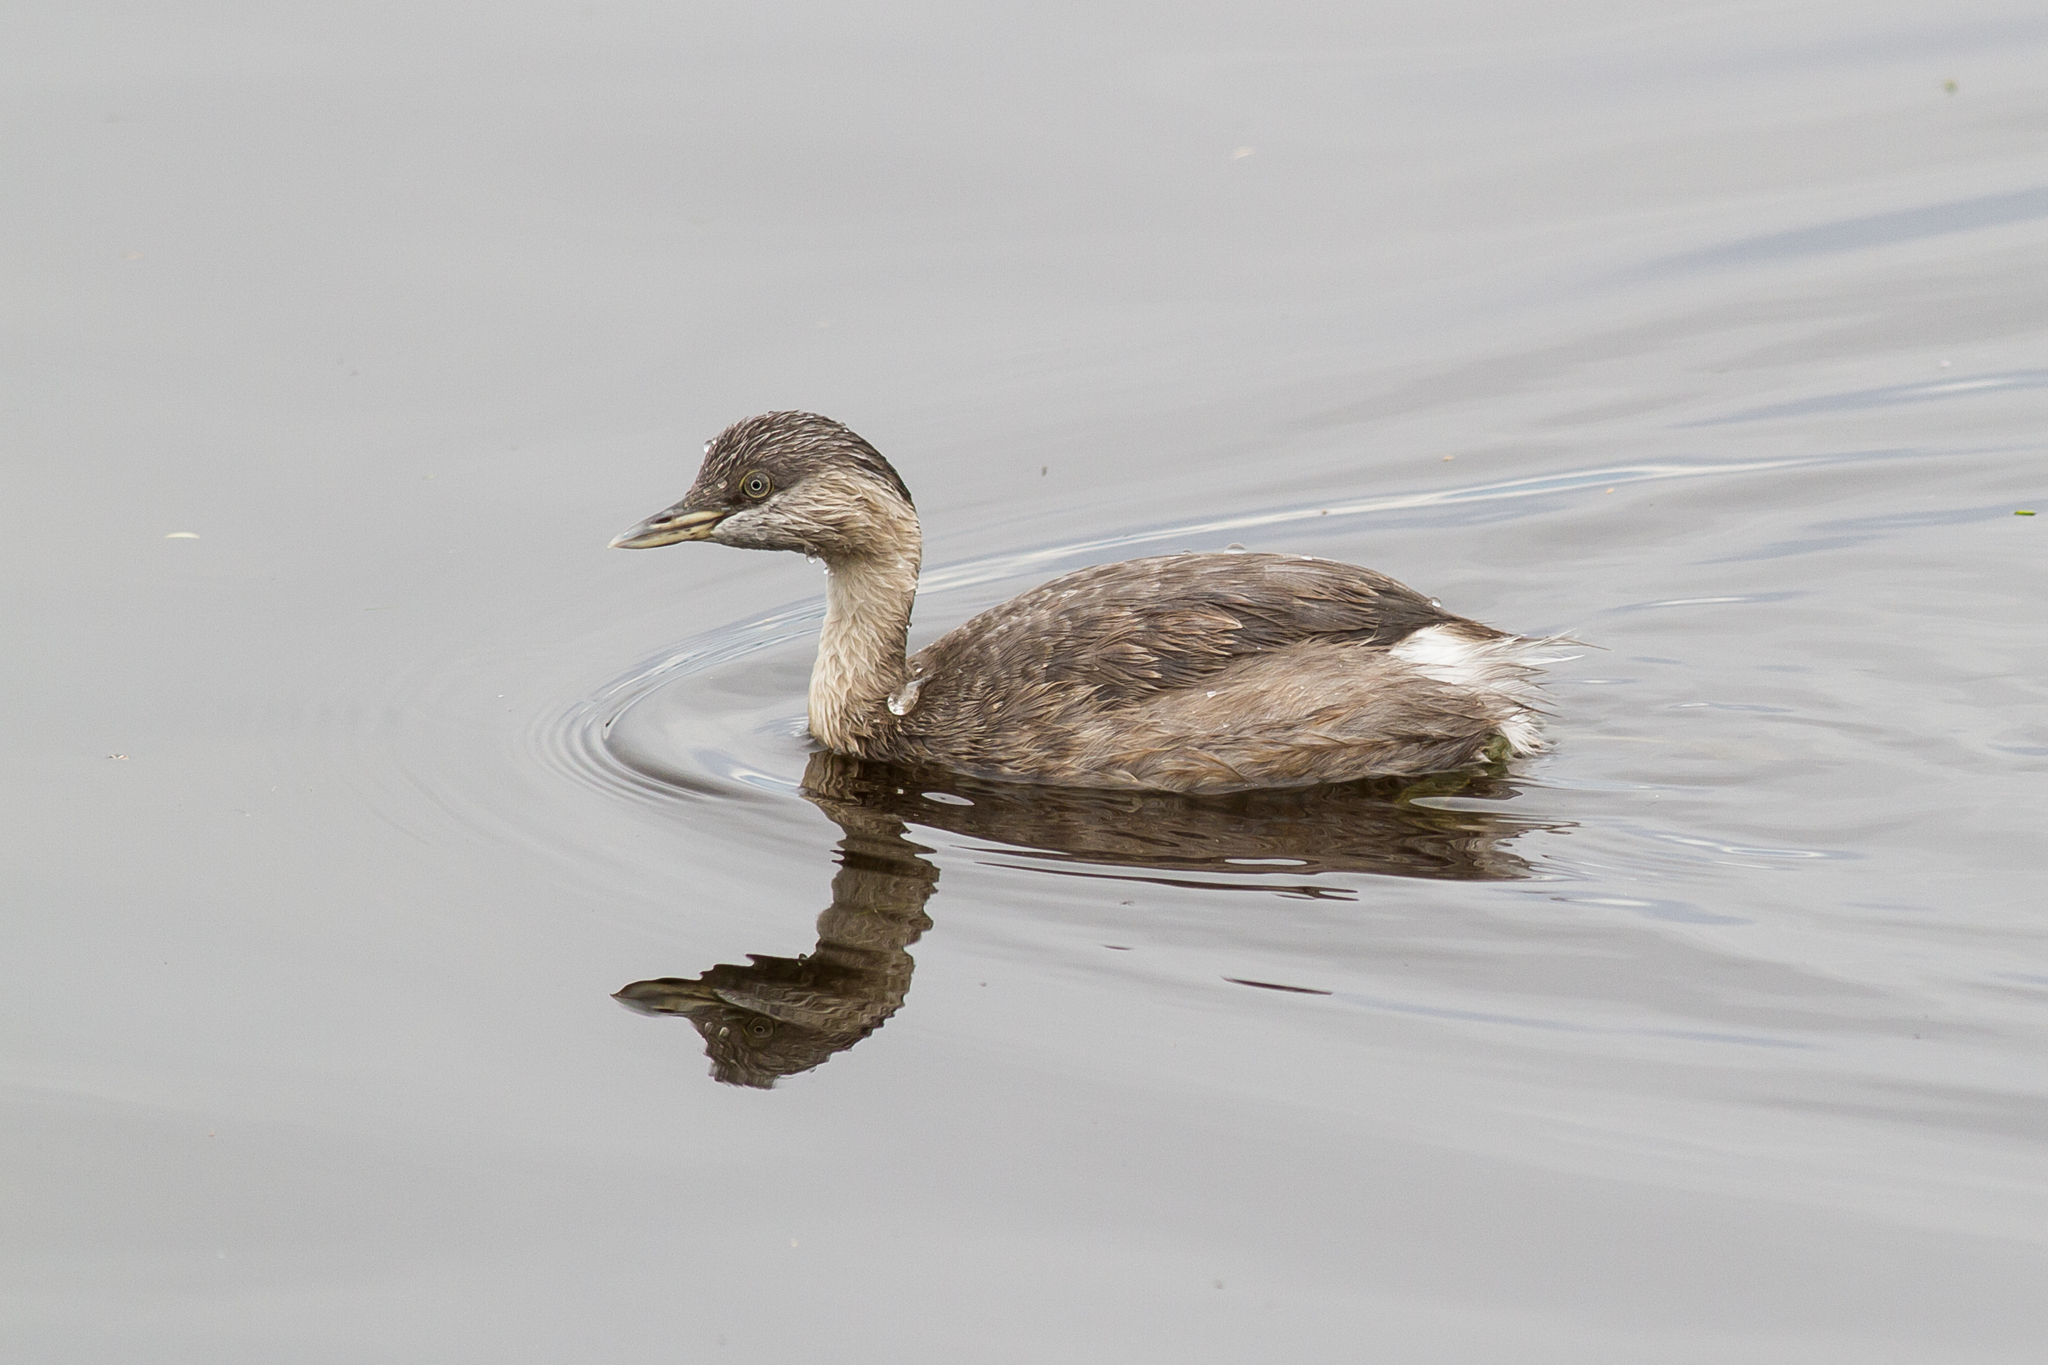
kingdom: Animalia
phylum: Chordata
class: Aves
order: Podicipediformes
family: Podicipedidae
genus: Poliocephalus
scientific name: Poliocephalus poliocephalus
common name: Hoary-headed grebe
